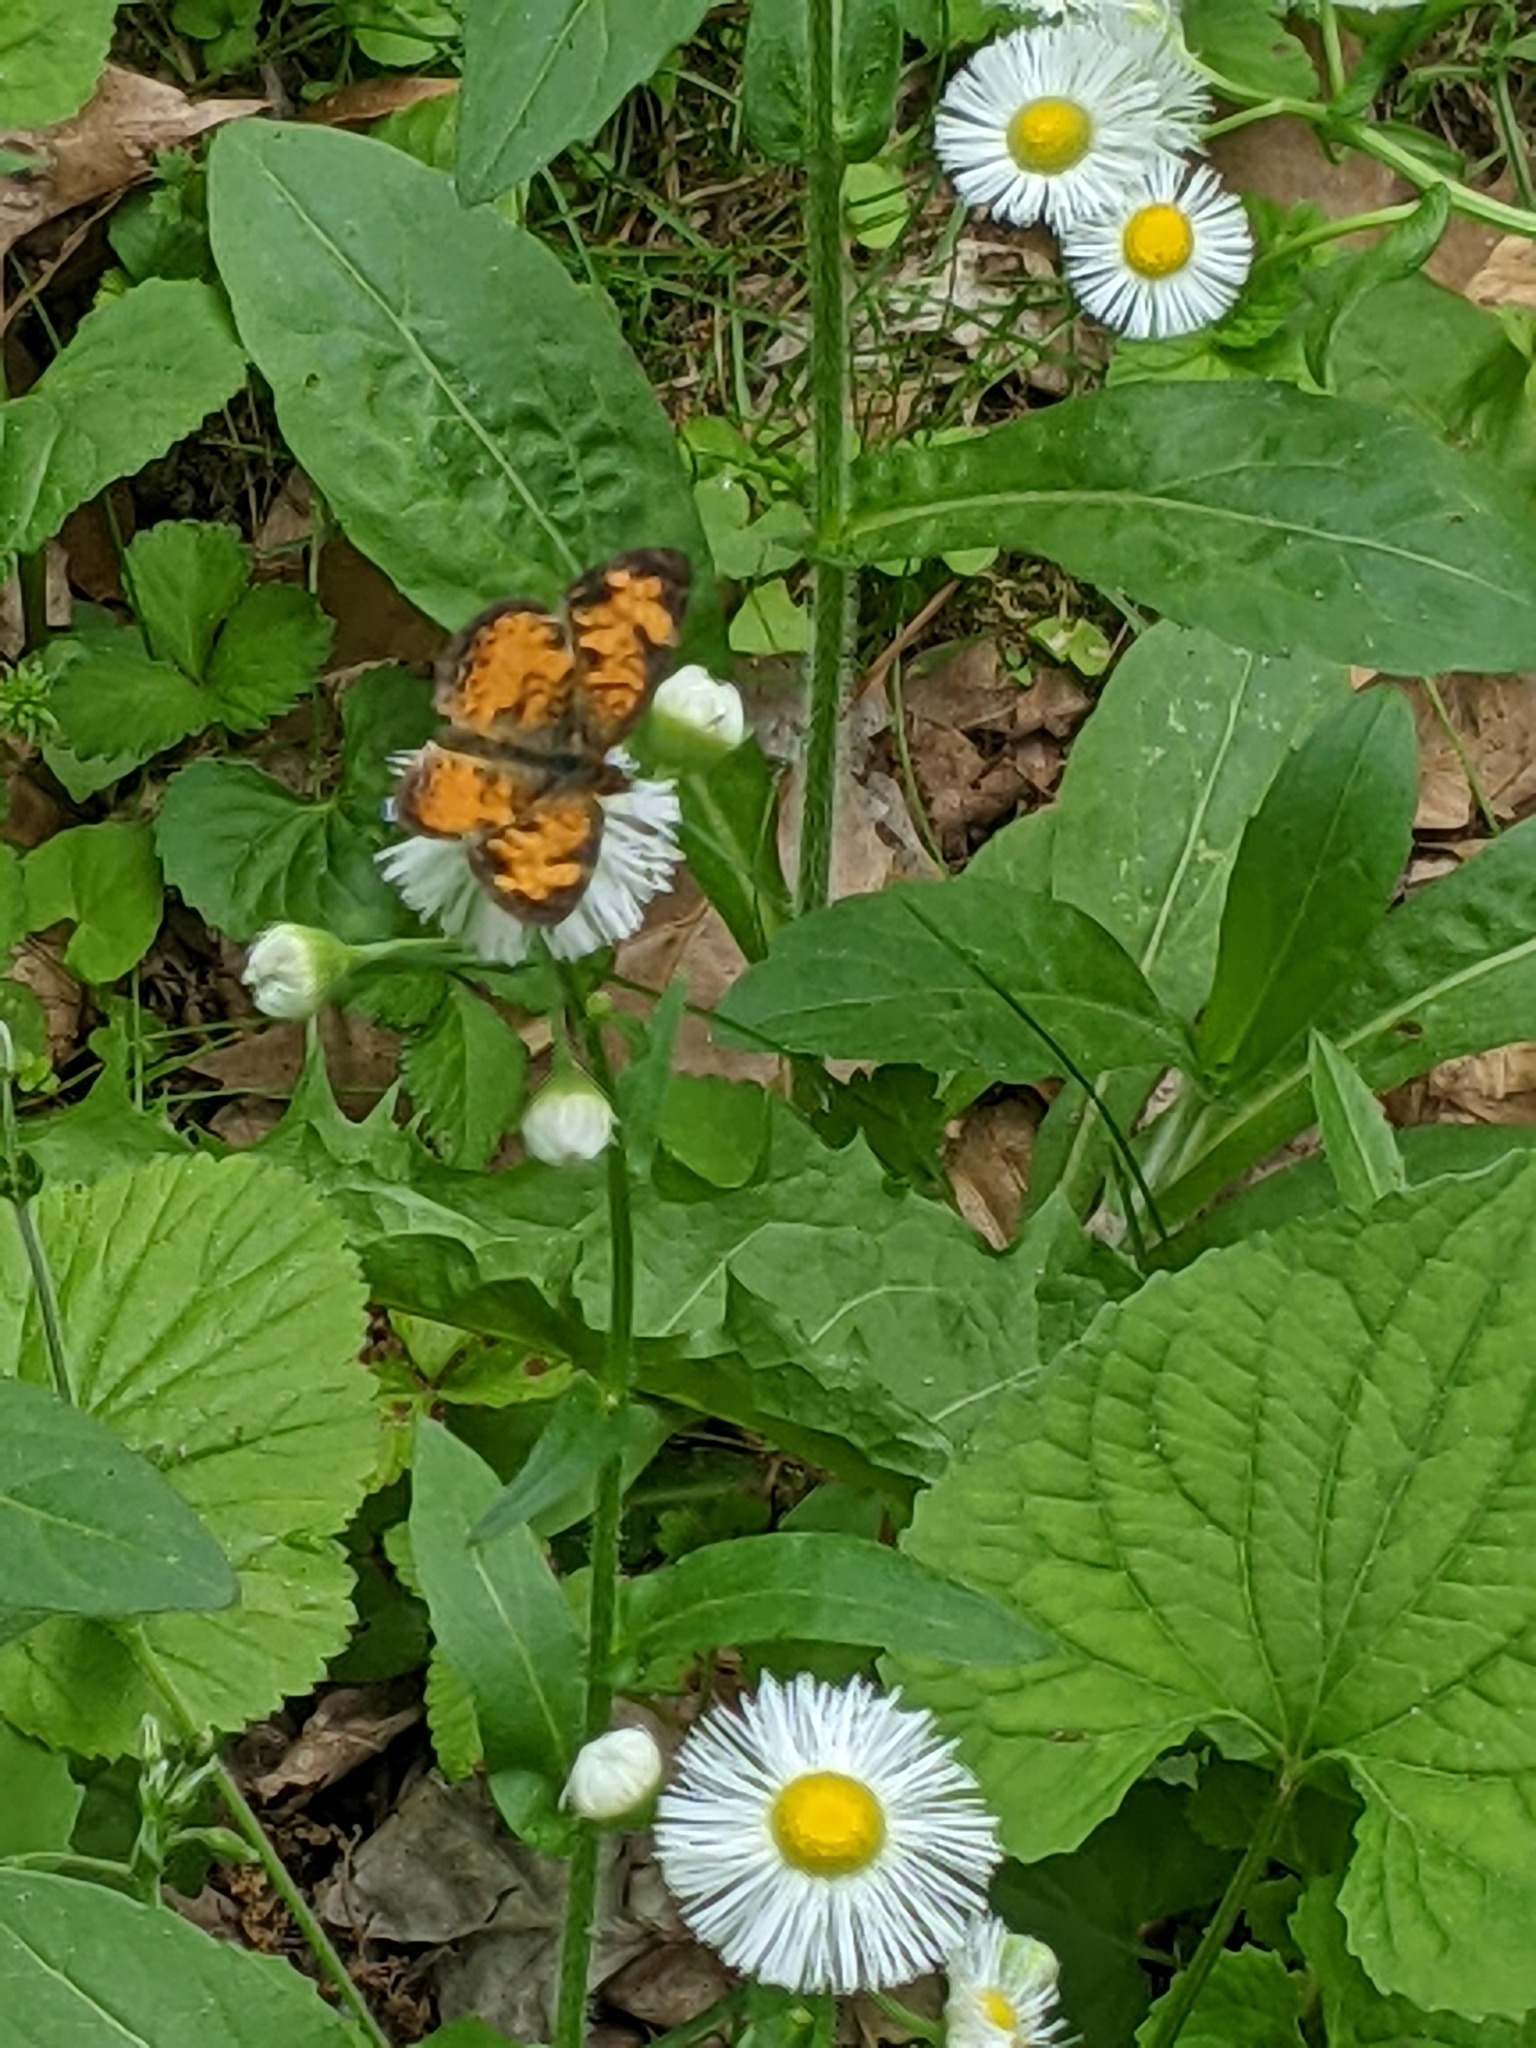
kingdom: Animalia
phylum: Arthropoda
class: Insecta
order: Lepidoptera
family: Nymphalidae
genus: Phyciodes
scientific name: Phyciodes tharos
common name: Pearl crescent
